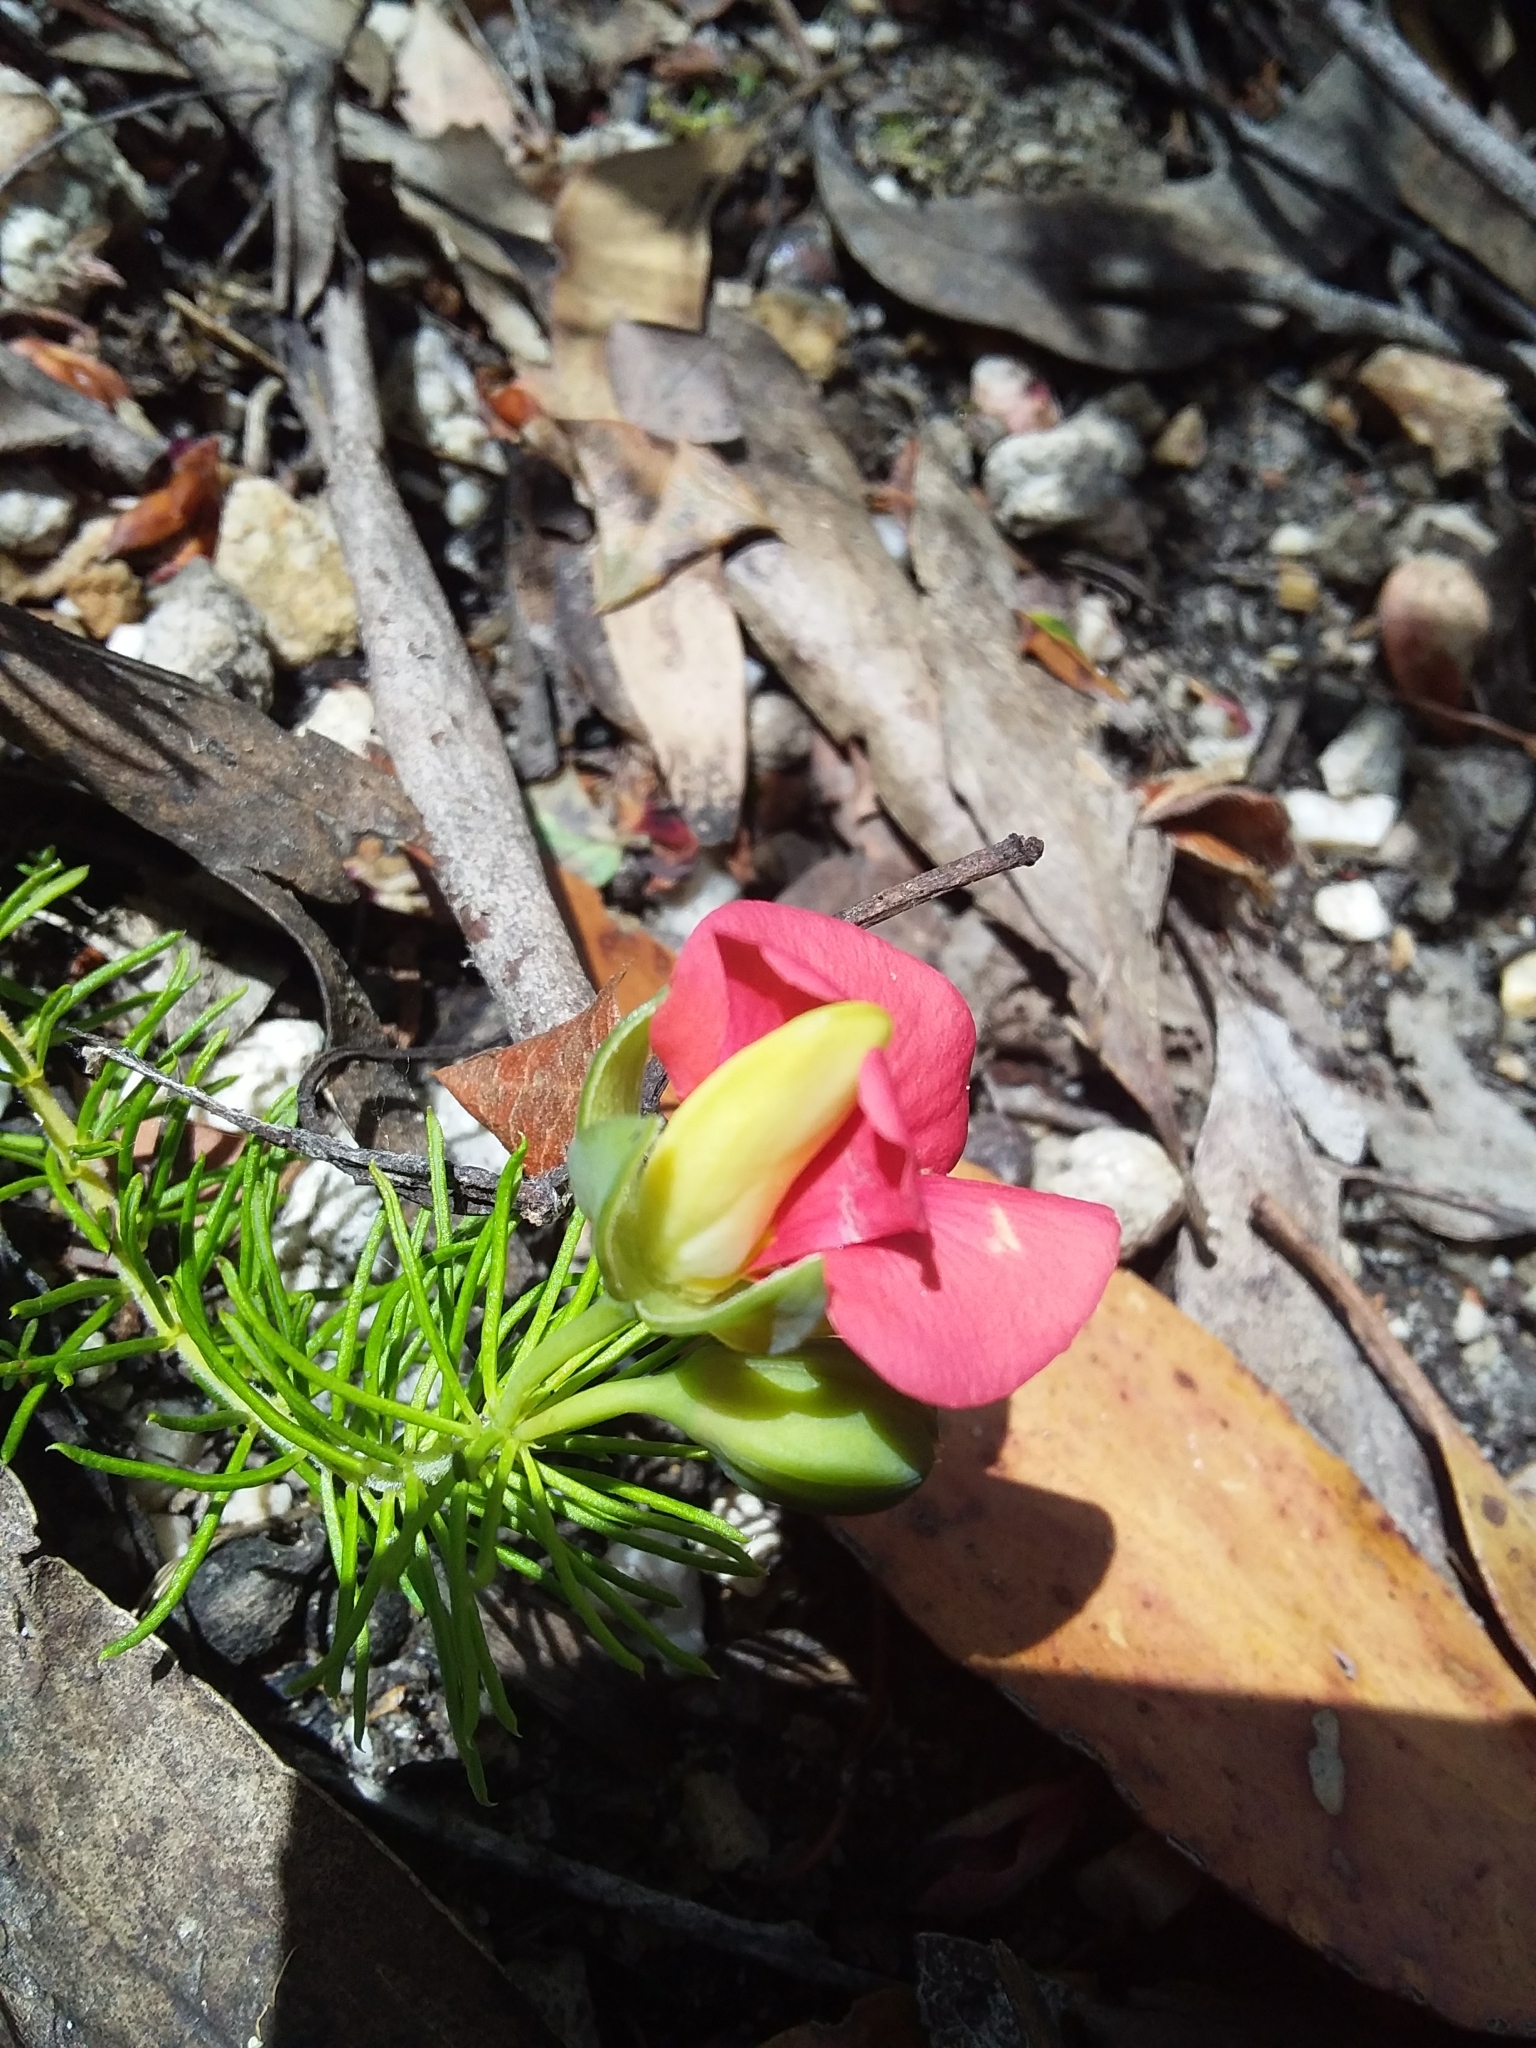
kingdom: Plantae
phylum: Tracheophyta
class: Magnoliopsida
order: Fabales
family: Fabaceae
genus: Gompholobium
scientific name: Gompholobium ecostatum
